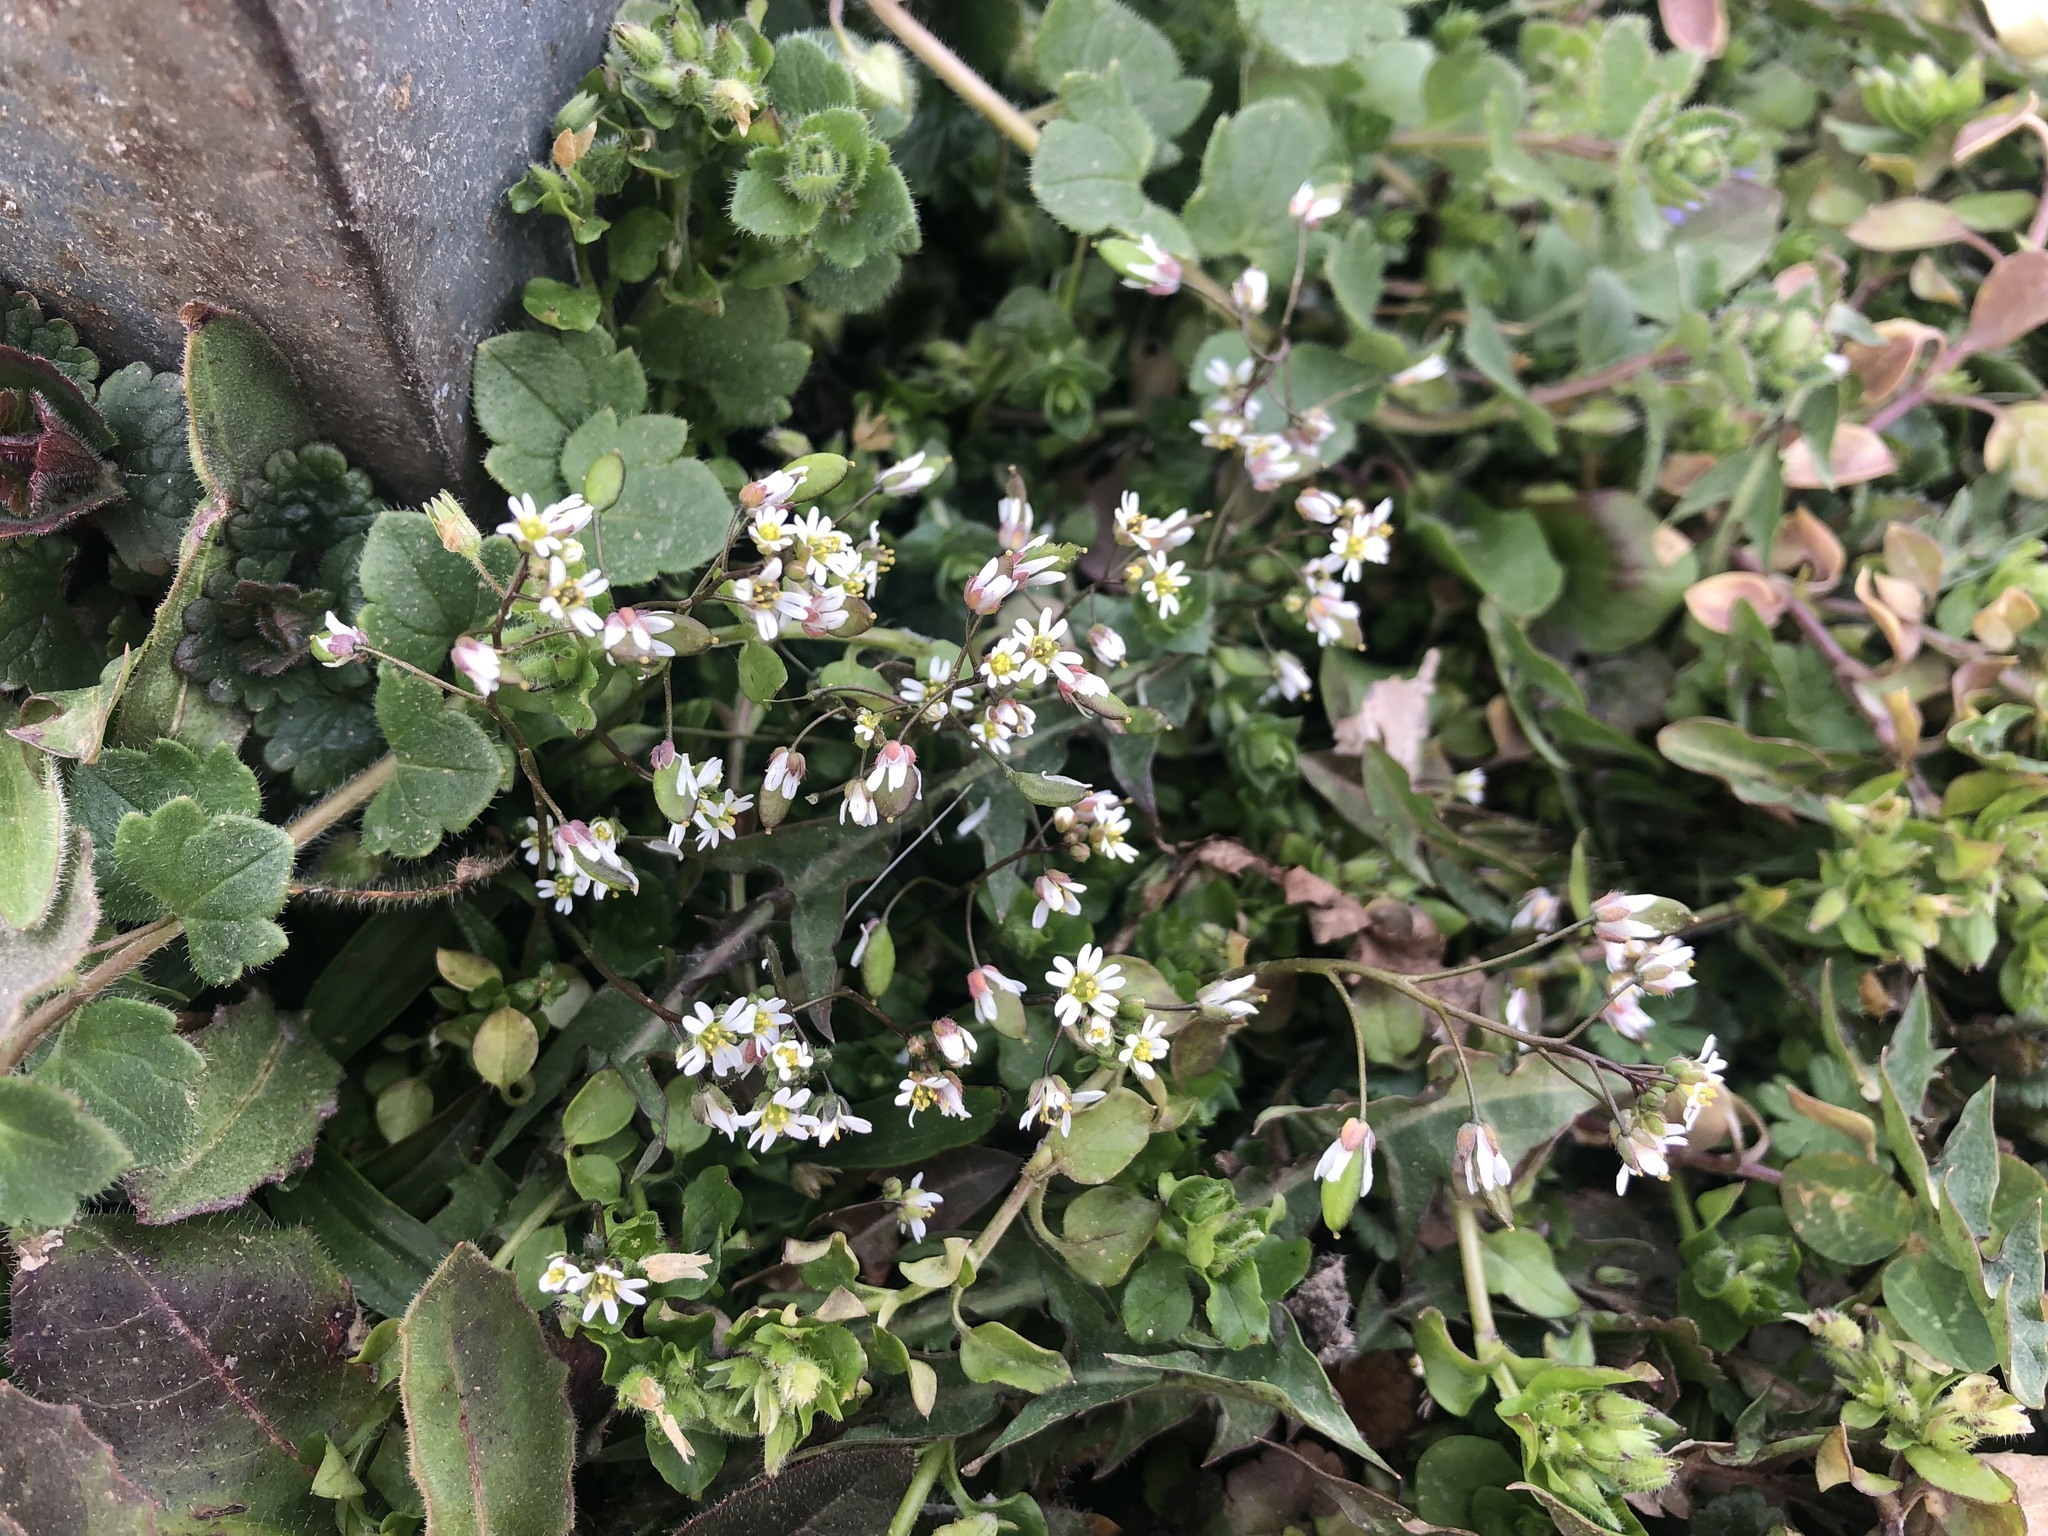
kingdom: Plantae
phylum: Tracheophyta
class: Magnoliopsida
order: Brassicales
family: Brassicaceae
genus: Draba
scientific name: Draba verna
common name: Spring draba
